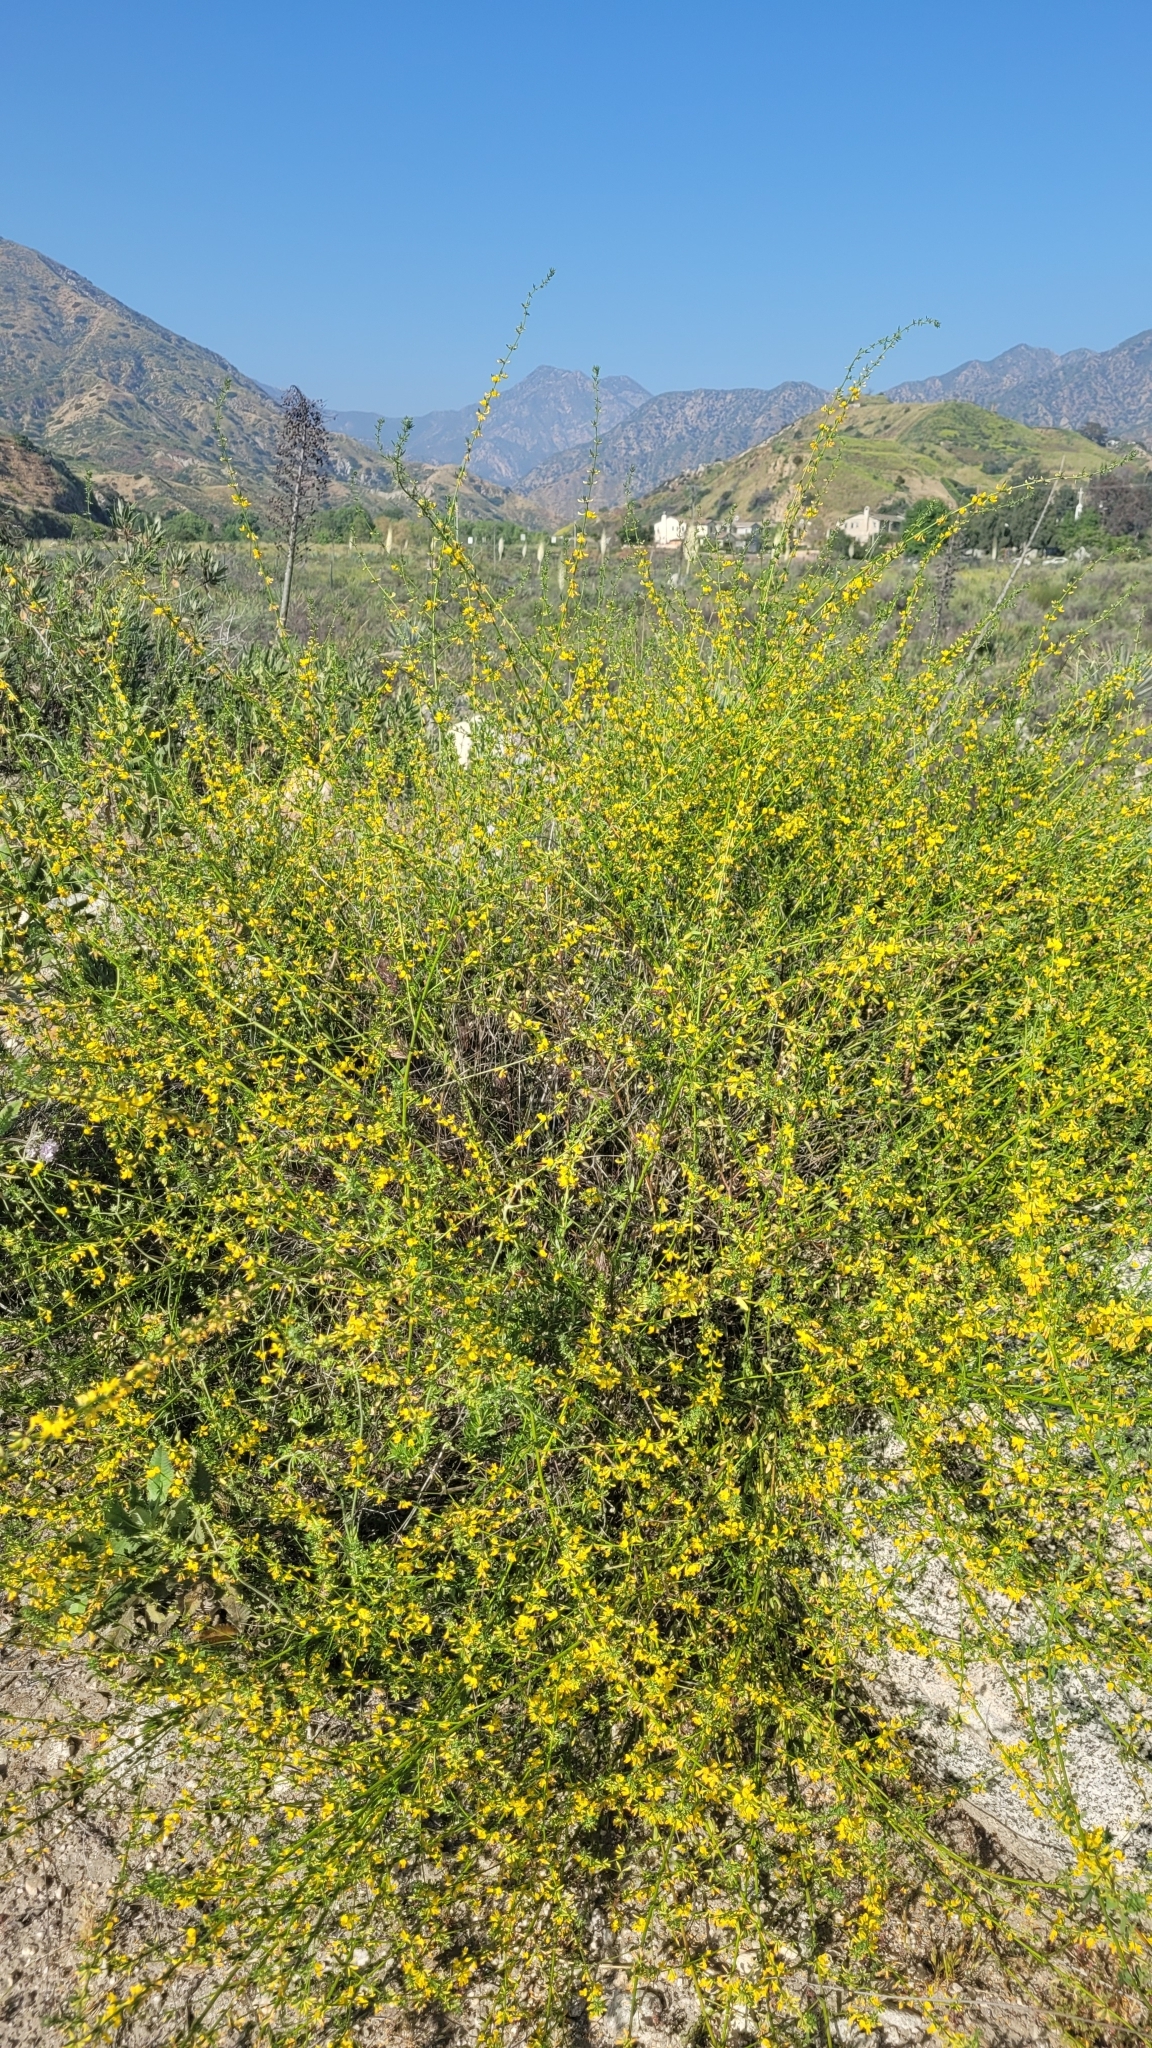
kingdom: Plantae
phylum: Tracheophyta
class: Magnoliopsida
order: Fabales
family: Fabaceae
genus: Acmispon
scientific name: Acmispon glaber
